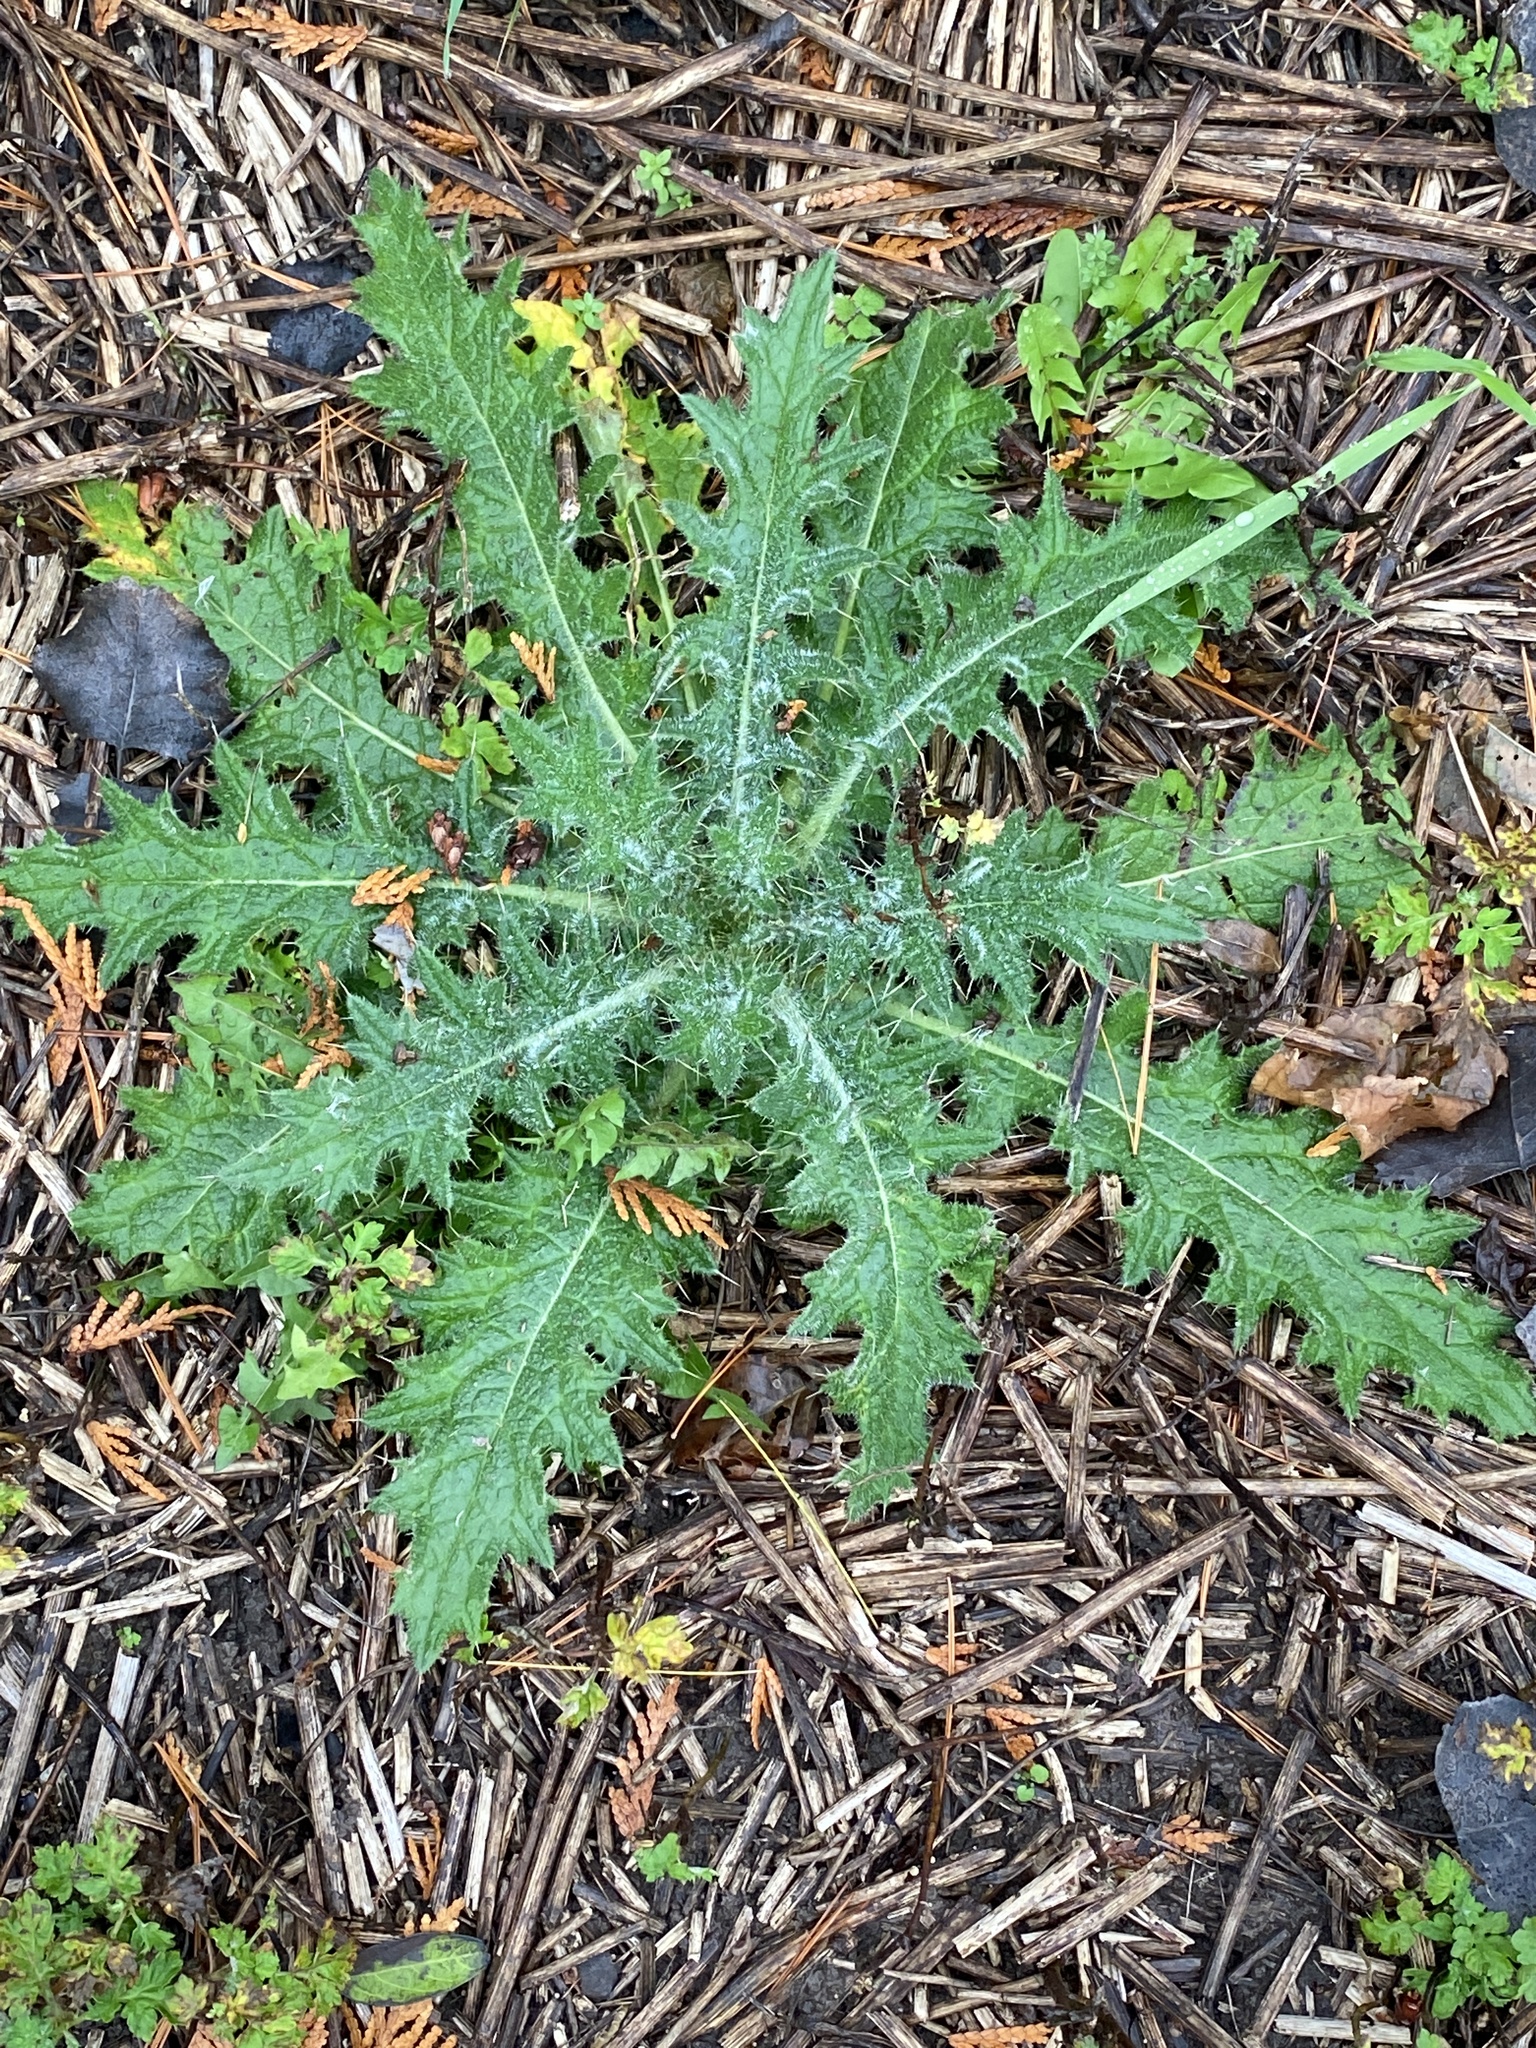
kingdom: Plantae
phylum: Tracheophyta
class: Magnoliopsida
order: Asterales
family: Asteraceae
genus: Cirsium
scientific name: Cirsium vulgare
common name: Bull thistle
